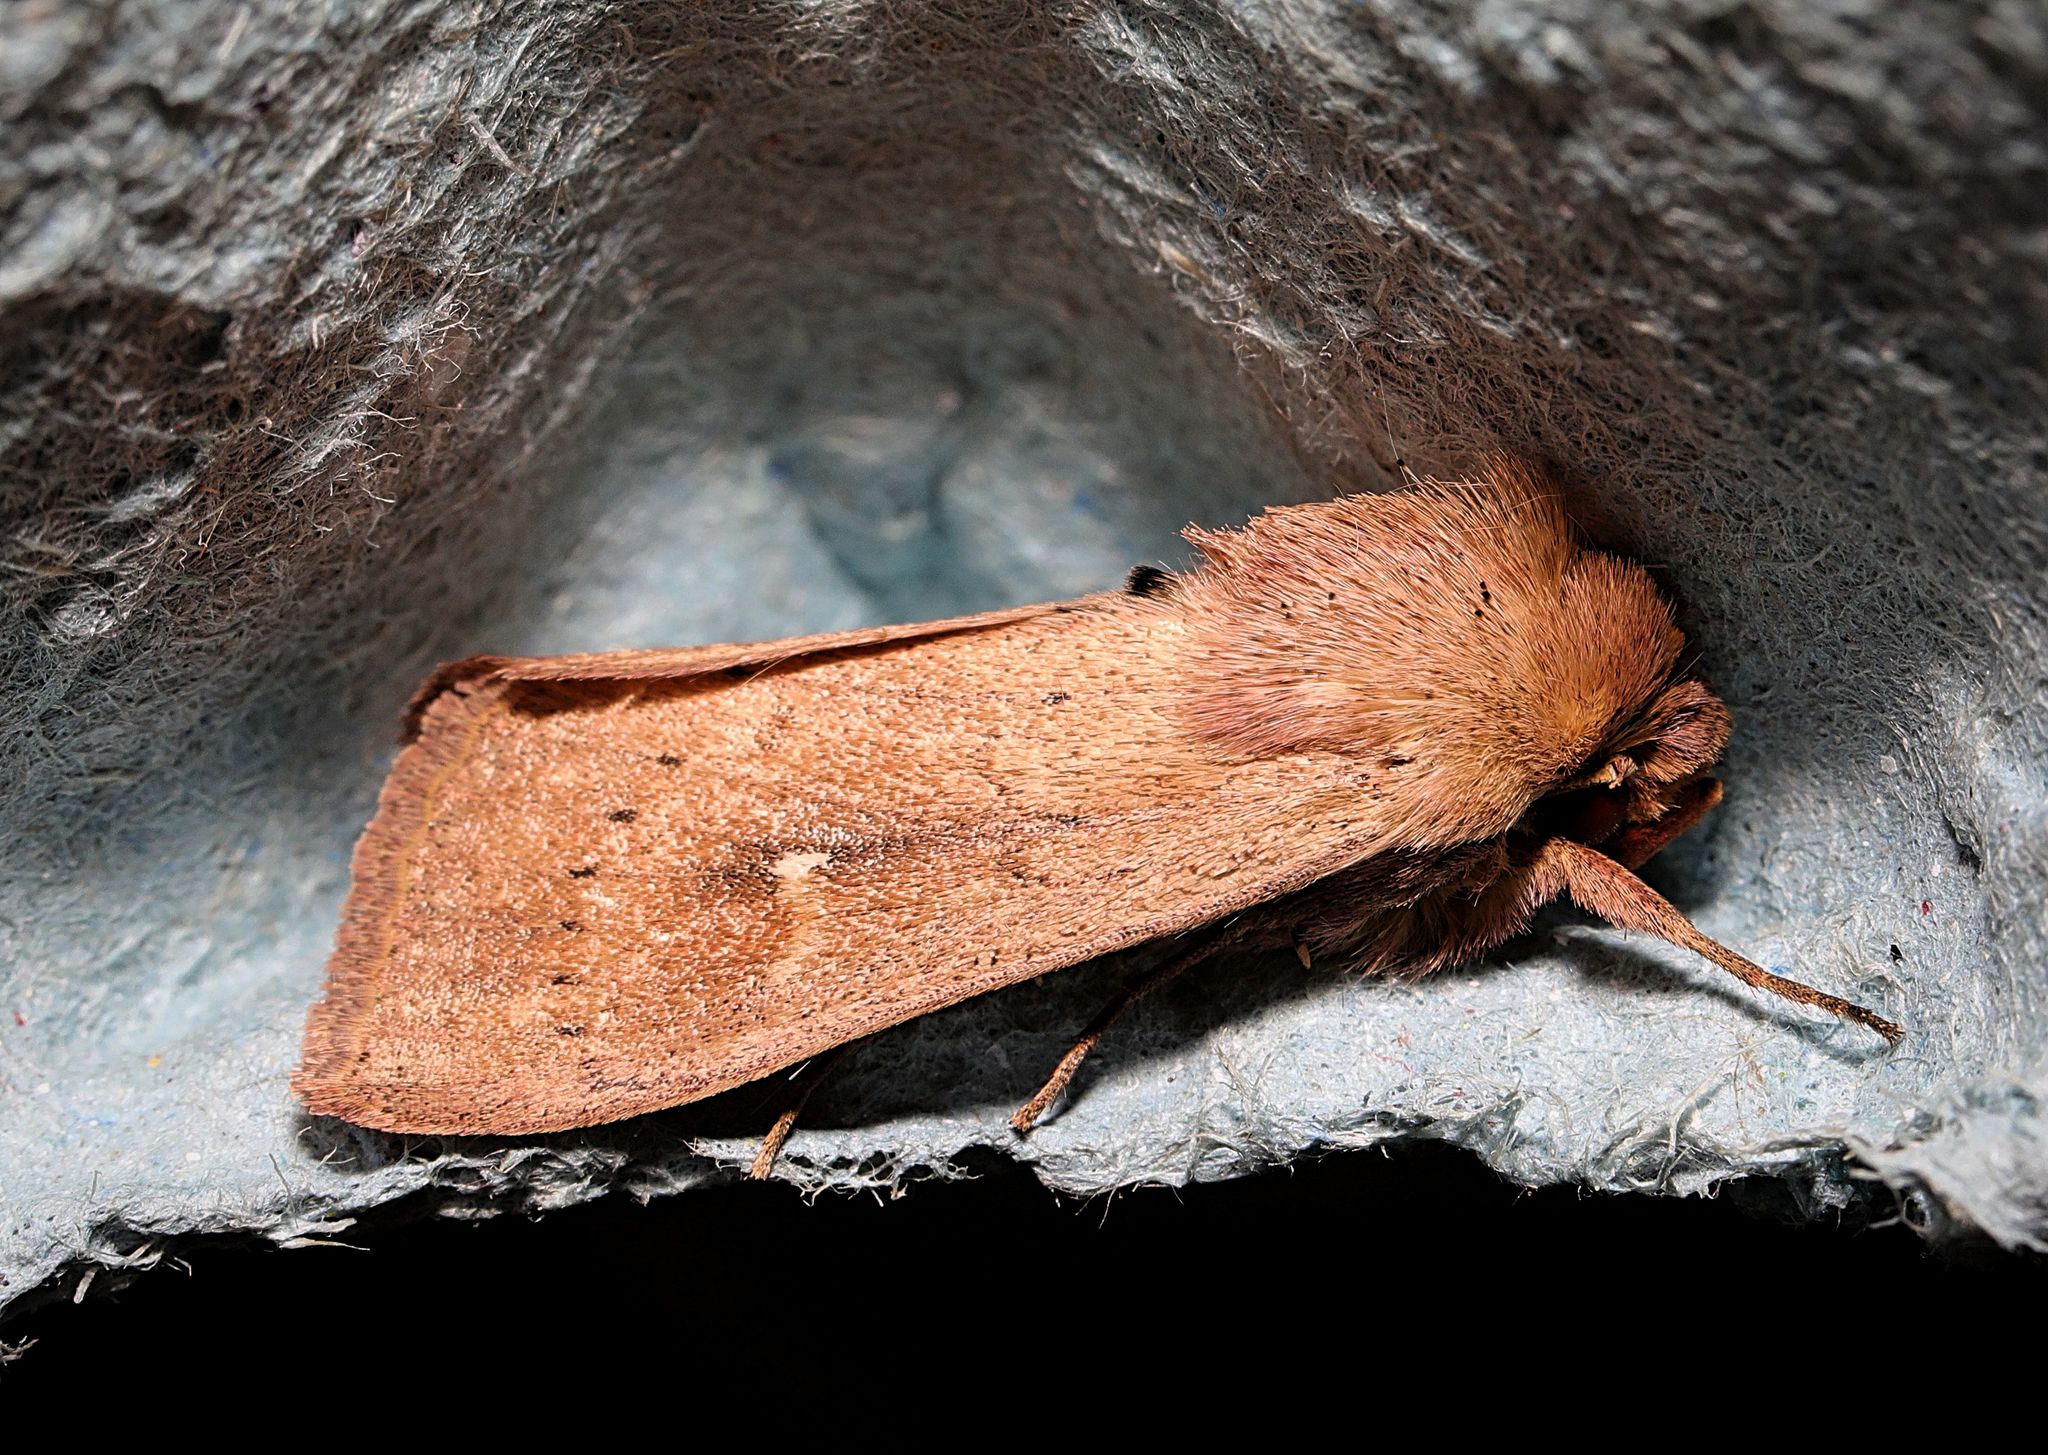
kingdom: Animalia
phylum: Arthropoda
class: Insecta
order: Lepidoptera
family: Noctuidae
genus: Mythimna
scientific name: Mythimna ferrago
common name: Clay
